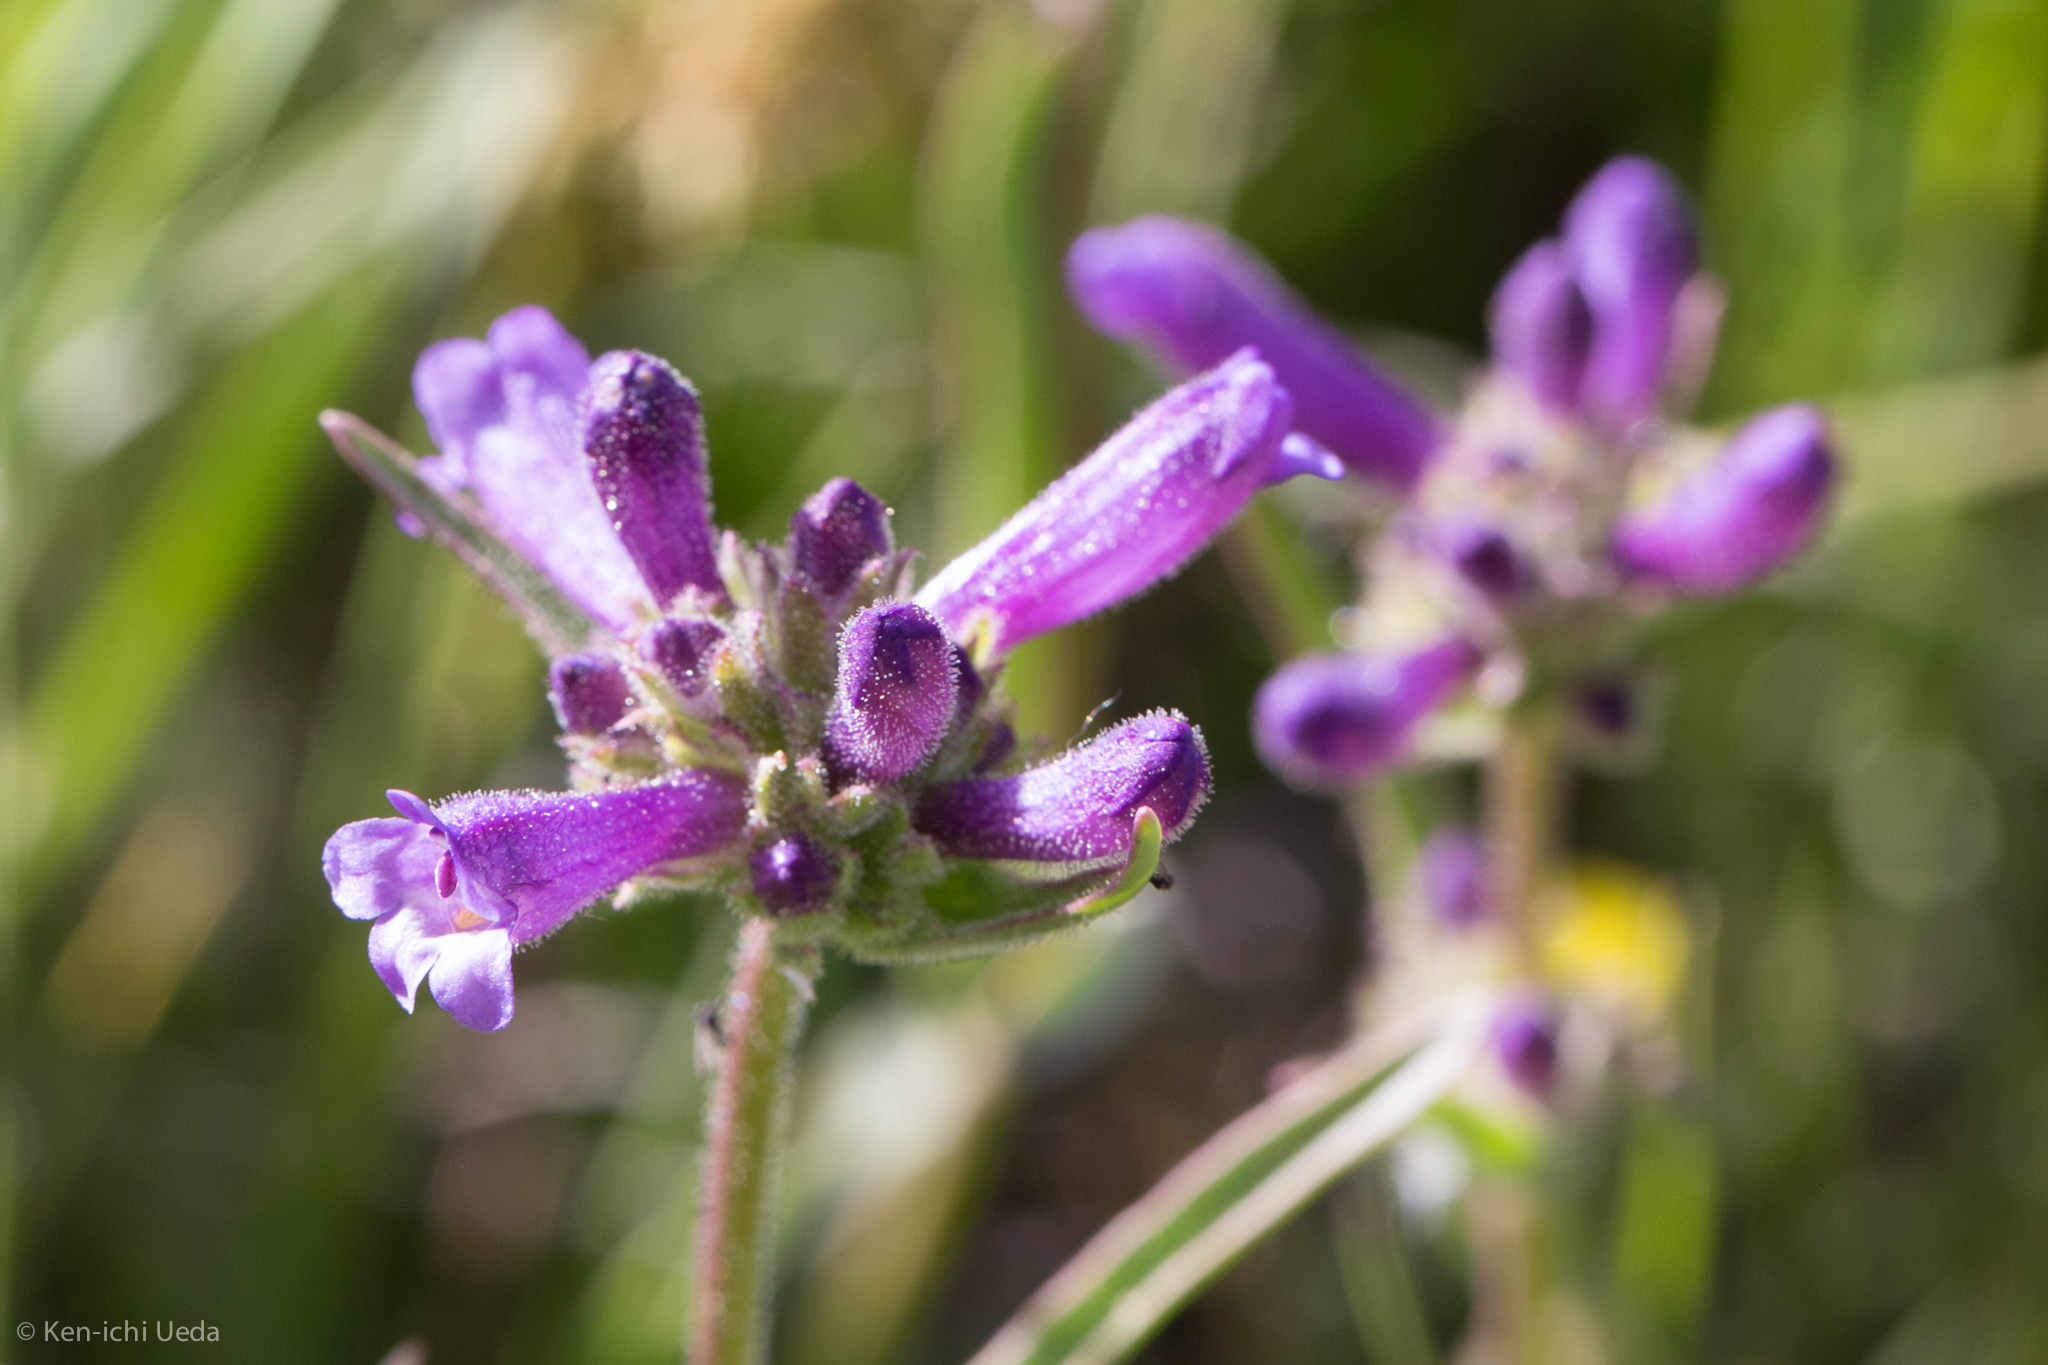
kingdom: Plantae
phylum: Tracheophyta
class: Magnoliopsida
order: Lamiales
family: Plantaginaceae
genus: Penstemon
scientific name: Penstemon heterodoxus
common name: Sierran penstemon
